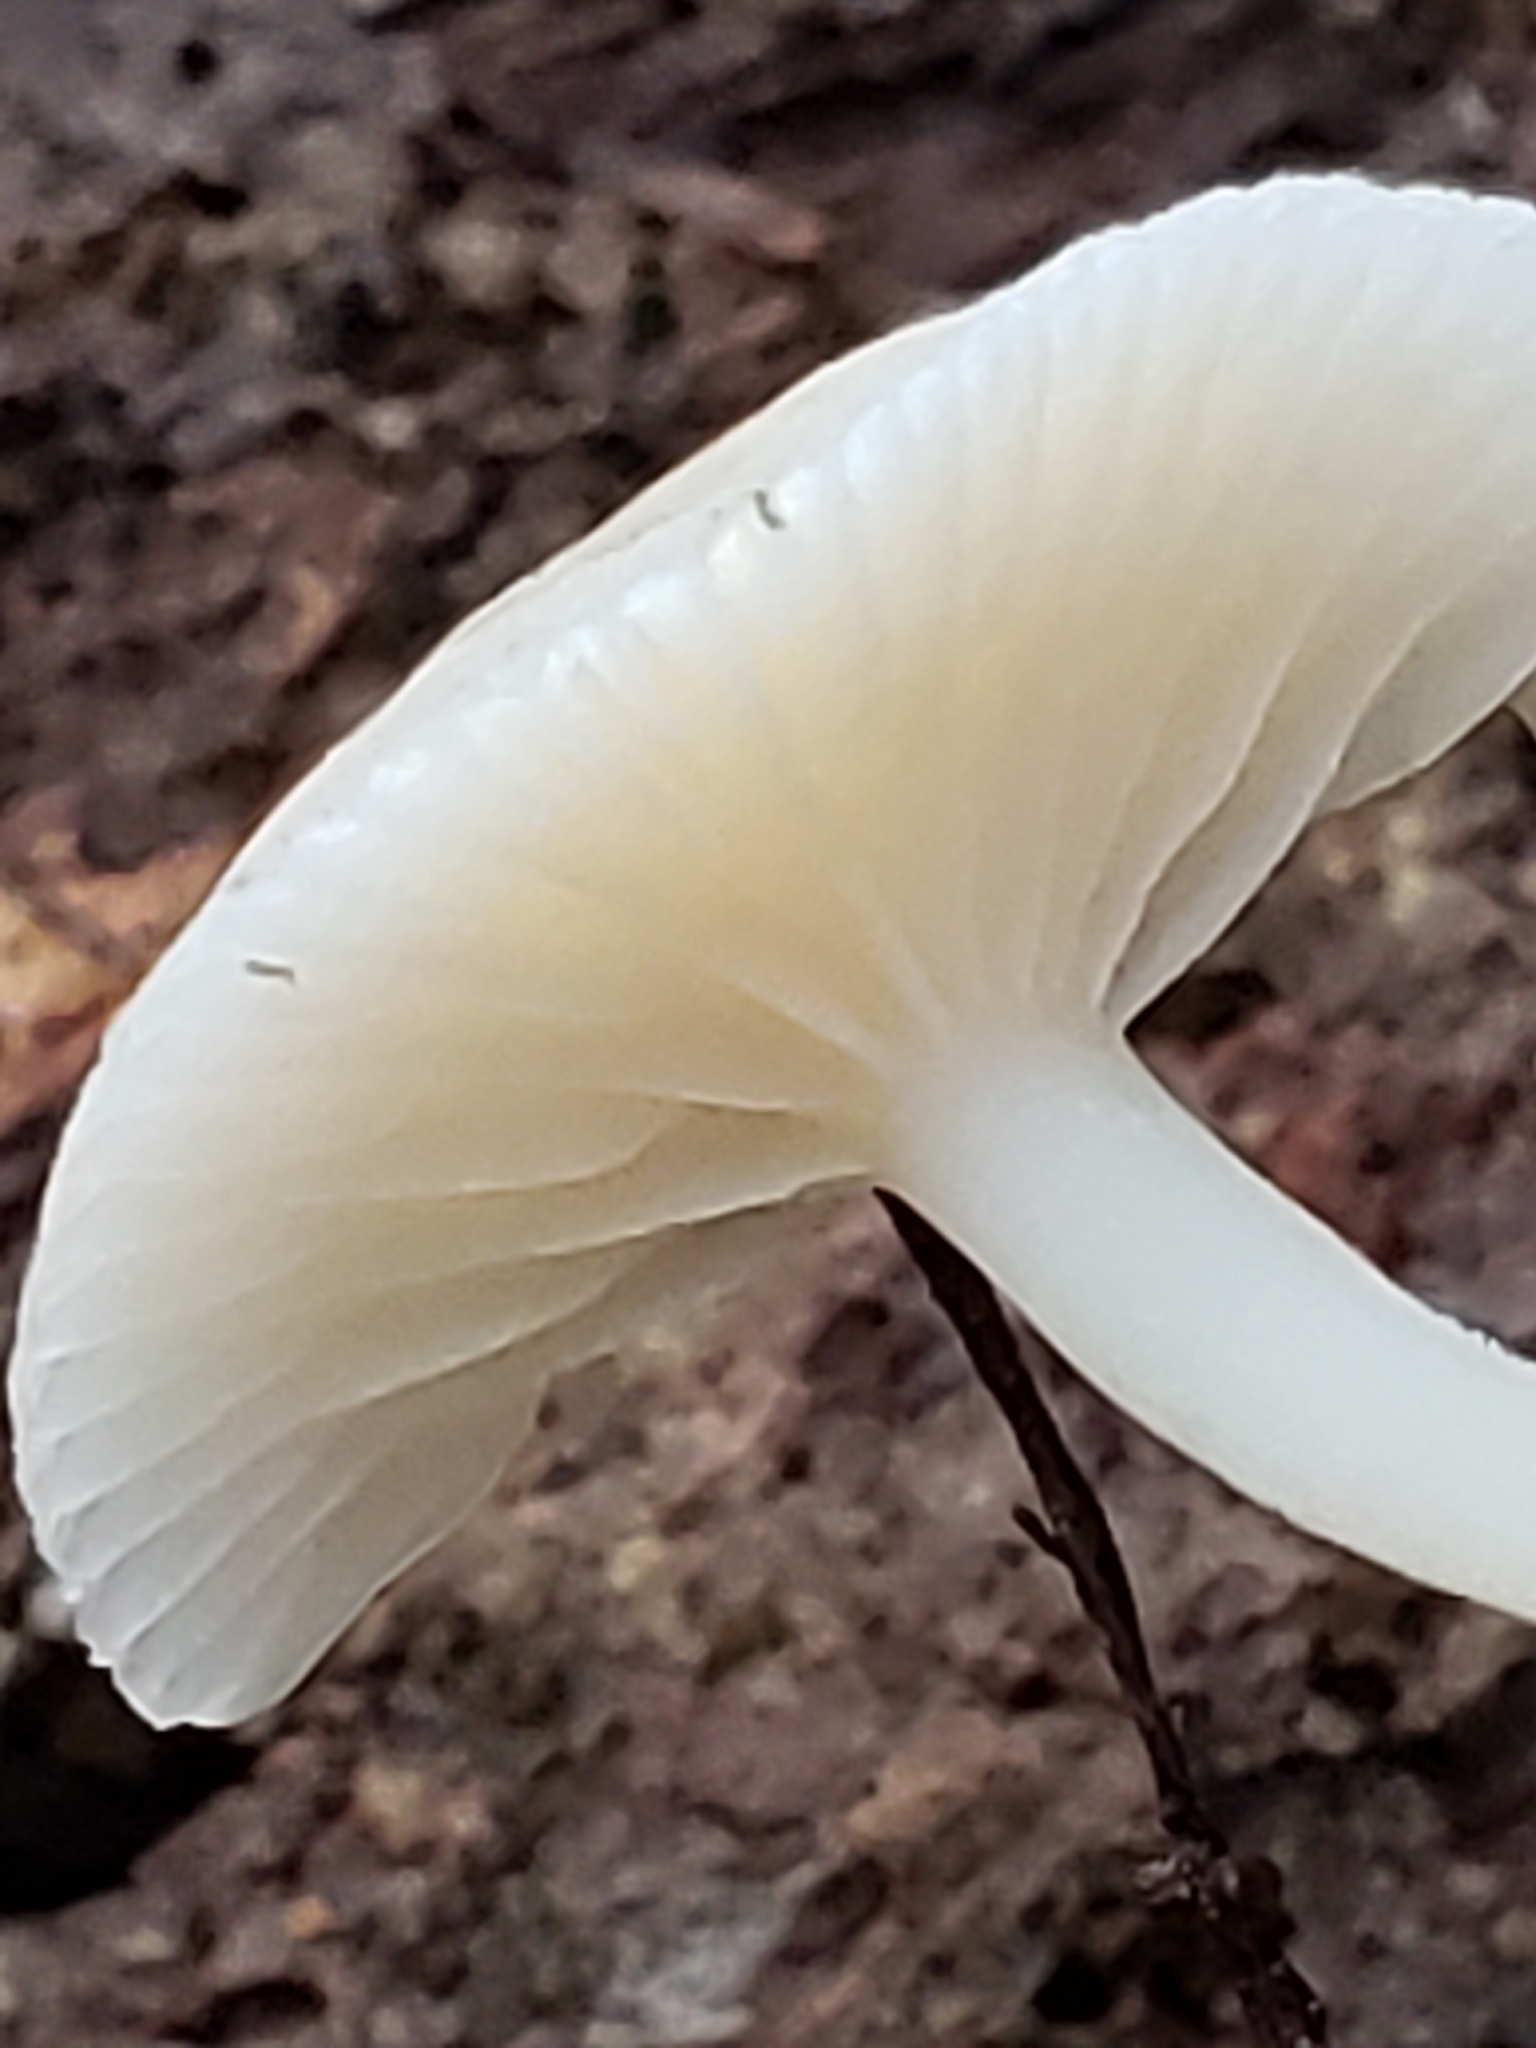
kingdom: Fungi
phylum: Basidiomycota
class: Agaricomycetes
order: Agaricales
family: Hygrophoraceae
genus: Cuphophyllus
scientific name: Cuphophyllus virgineus
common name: Snowy waxcap
